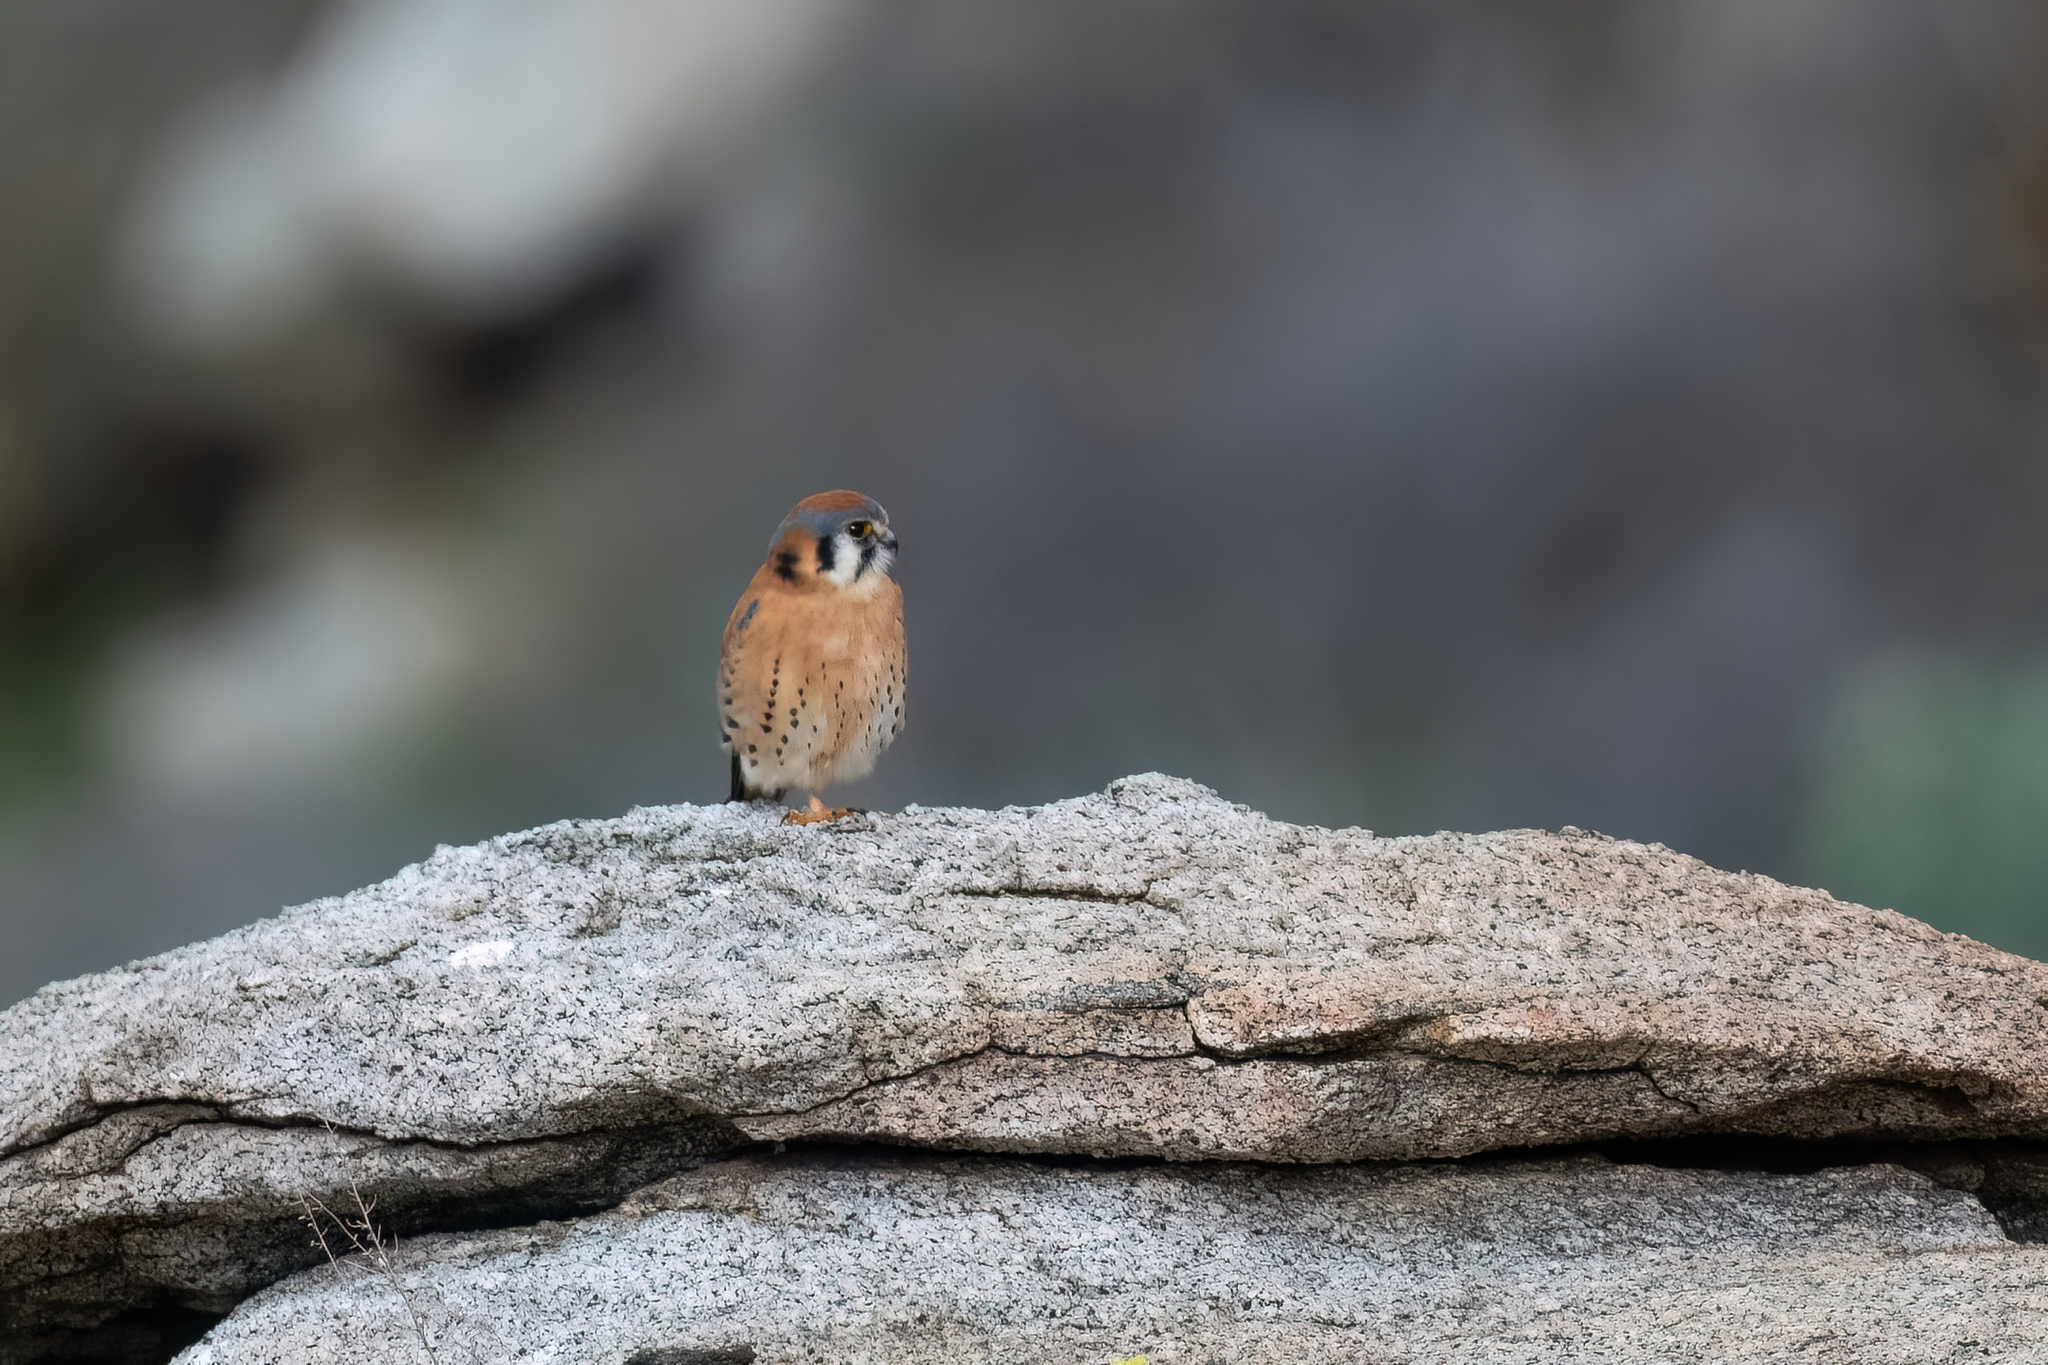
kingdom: Animalia
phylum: Chordata
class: Aves
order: Falconiformes
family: Falconidae
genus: Falco
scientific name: Falco sparverius
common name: American kestrel
